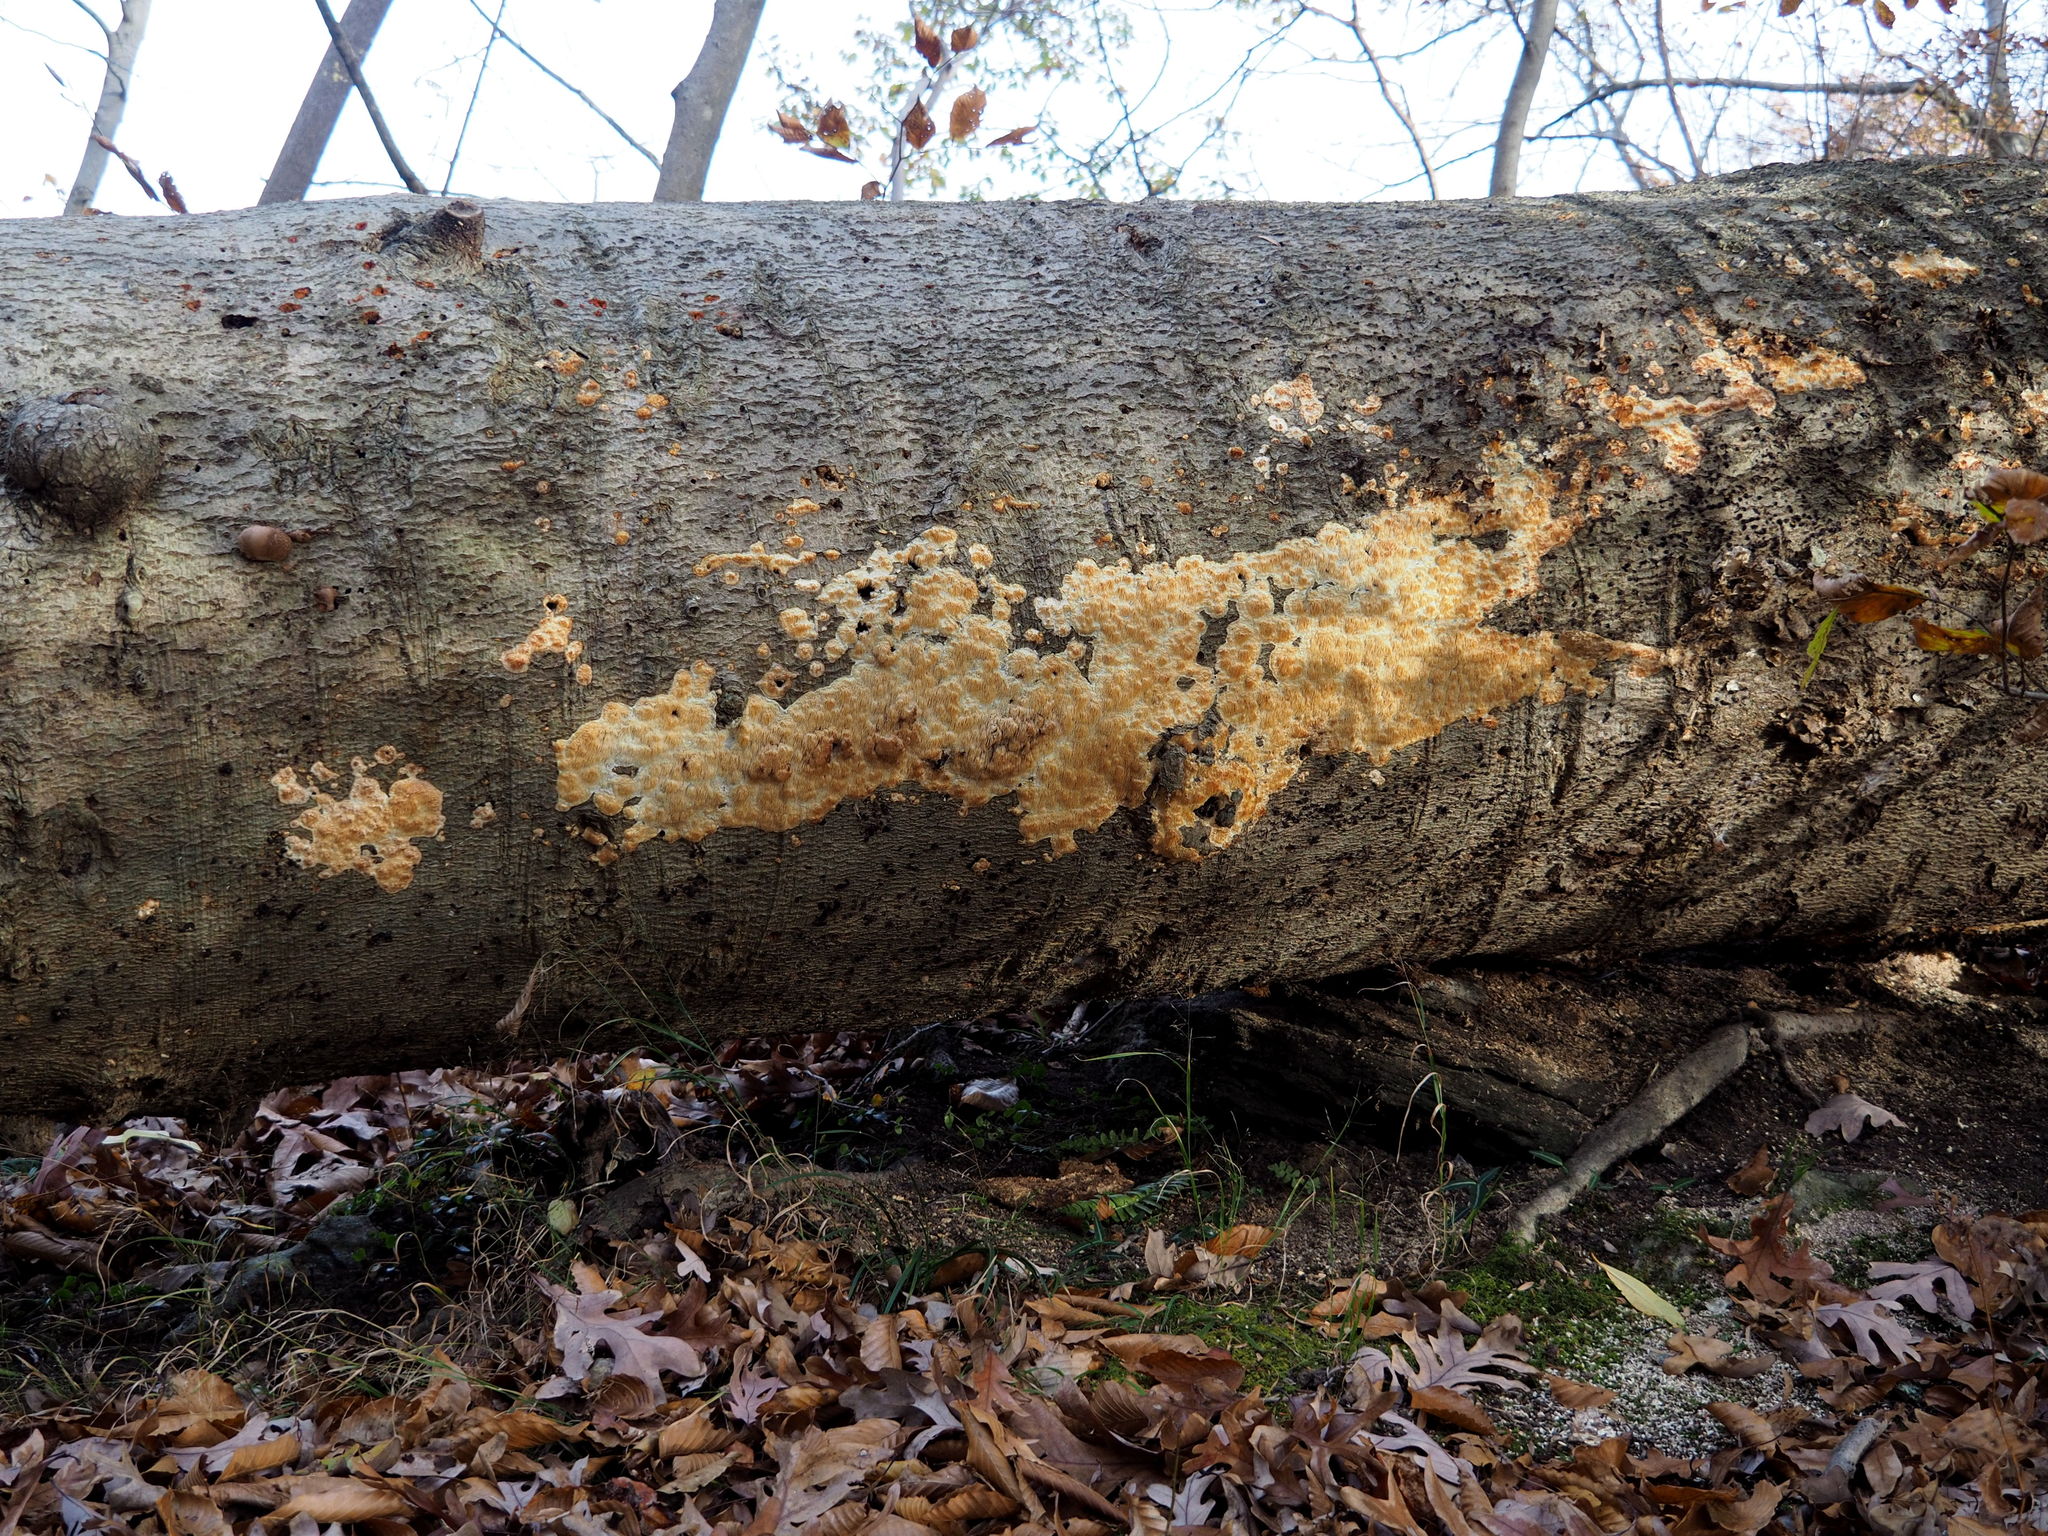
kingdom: Fungi
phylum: Basidiomycota
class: Agaricomycetes
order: Agaricales
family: Radulomycetaceae
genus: Radulomyces
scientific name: Radulomyces copelandii
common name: Asian beauty
